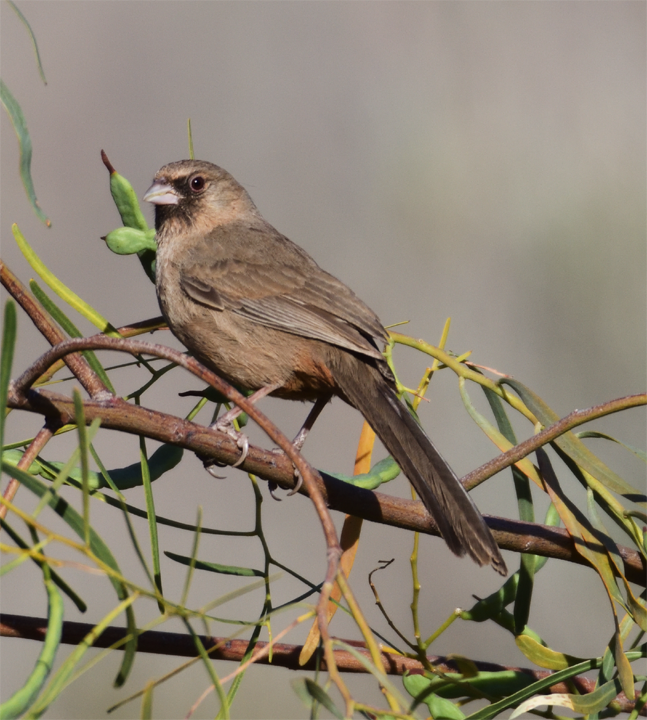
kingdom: Animalia
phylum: Chordata
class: Aves
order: Passeriformes
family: Passerellidae
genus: Melozone
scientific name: Melozone aberti
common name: Abert's towhee
